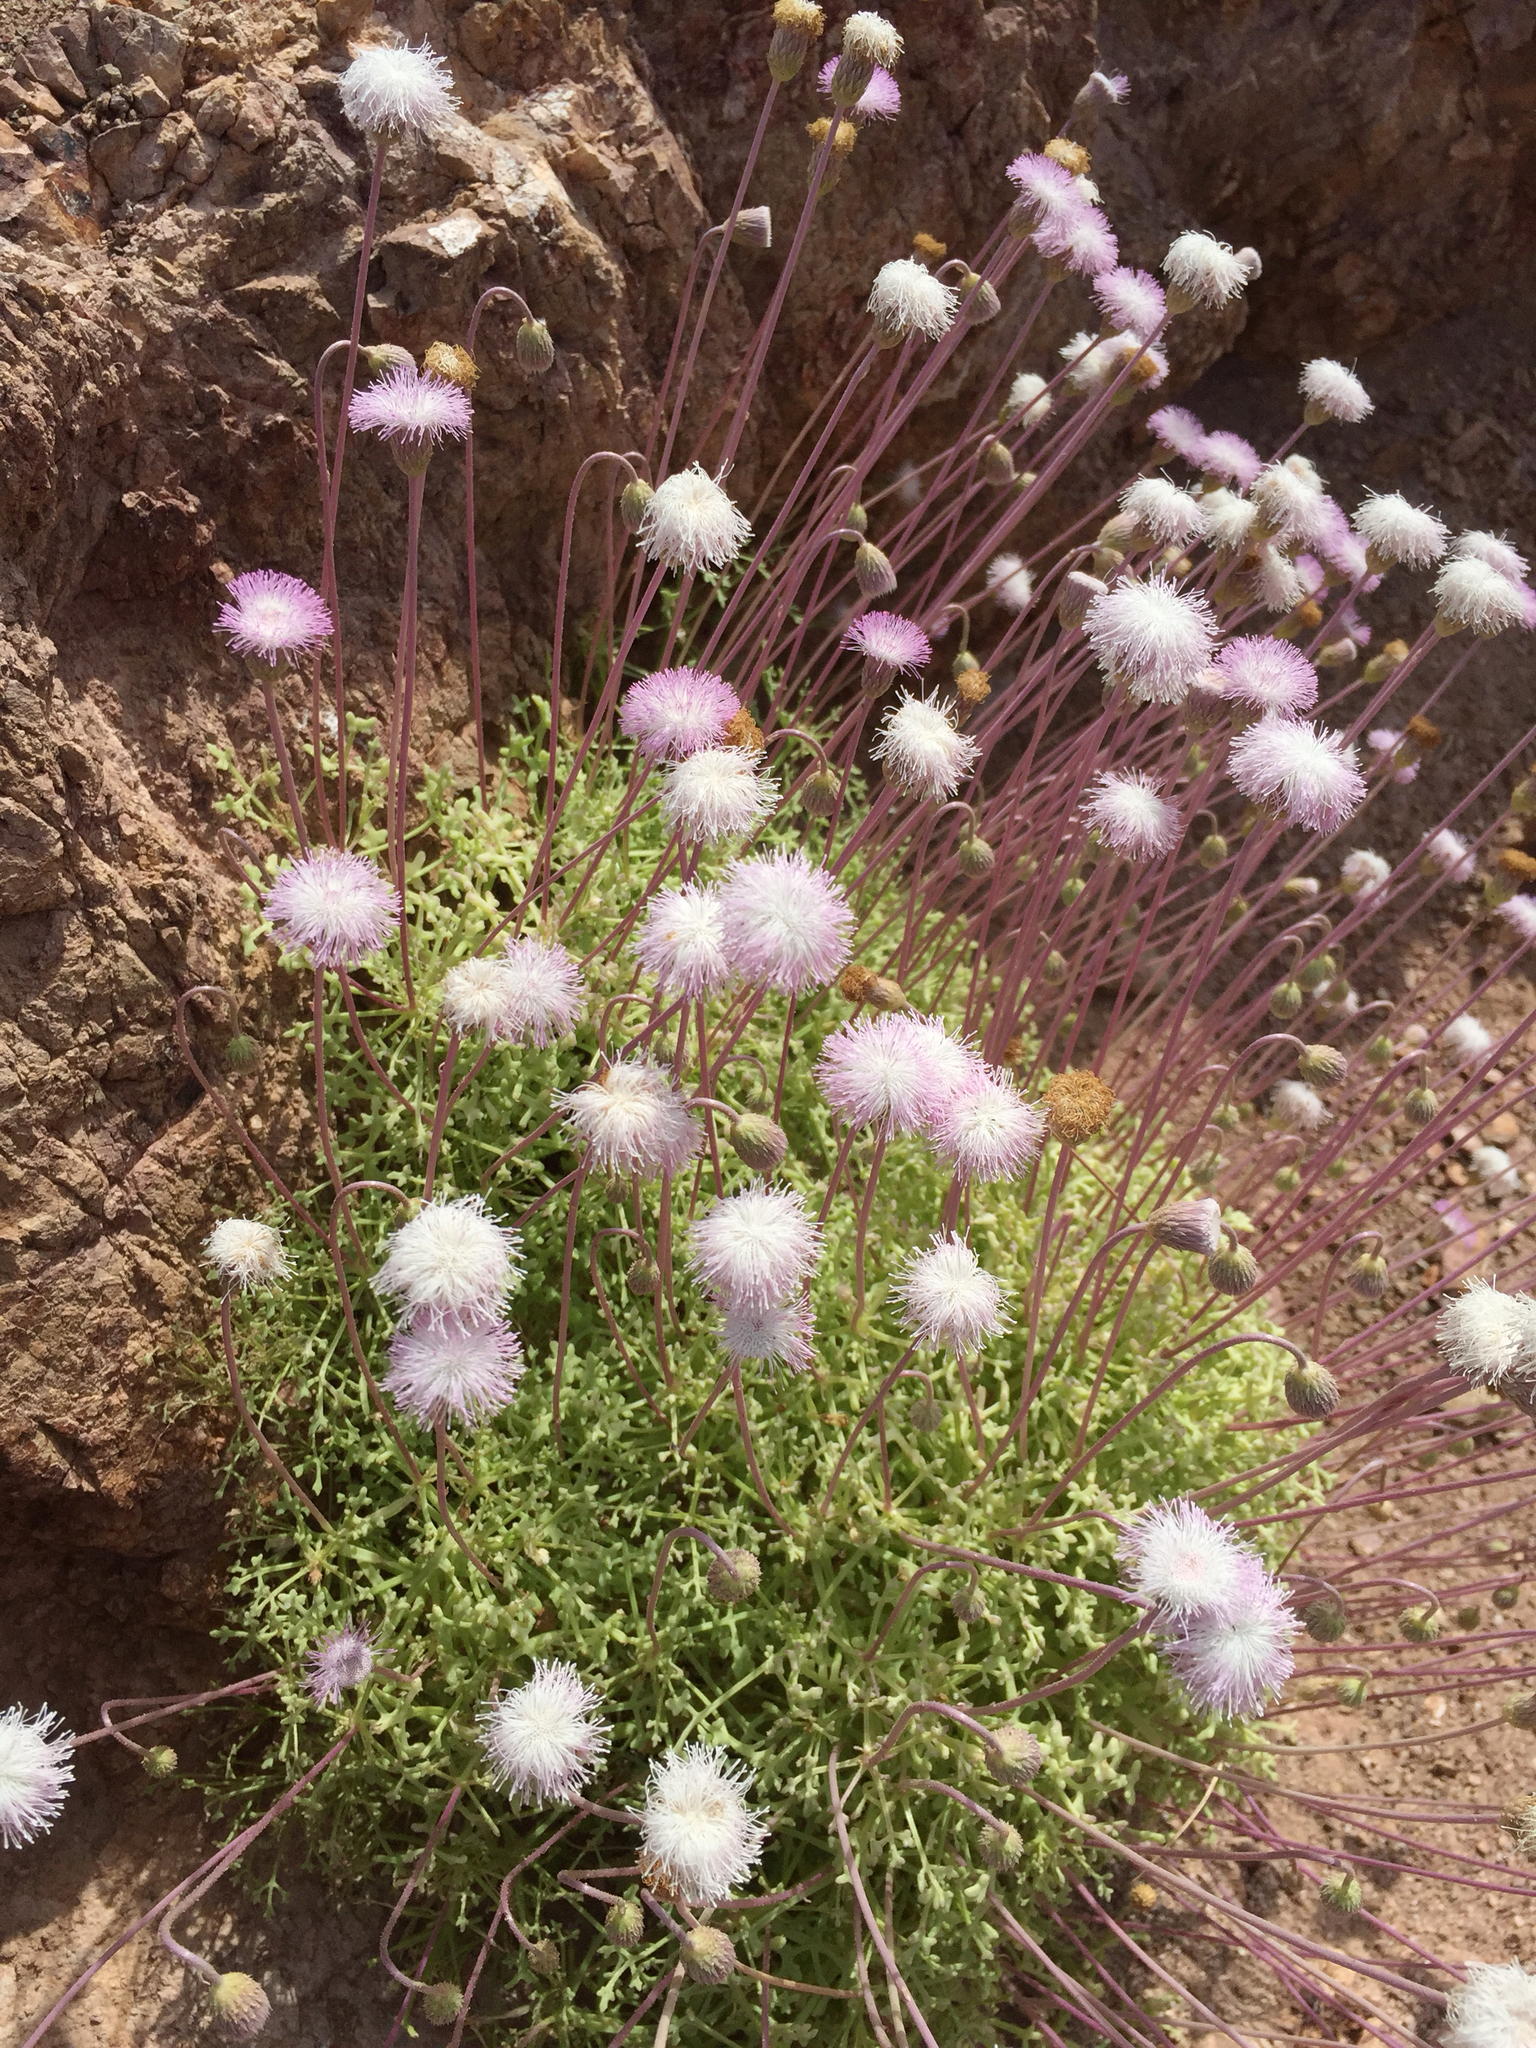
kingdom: Plantae
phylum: Tracheophyta
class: Magnoliopsida
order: Asterales
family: Asteraceae
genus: Hofmeisteria
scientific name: Hofmeisteria crassifolia
